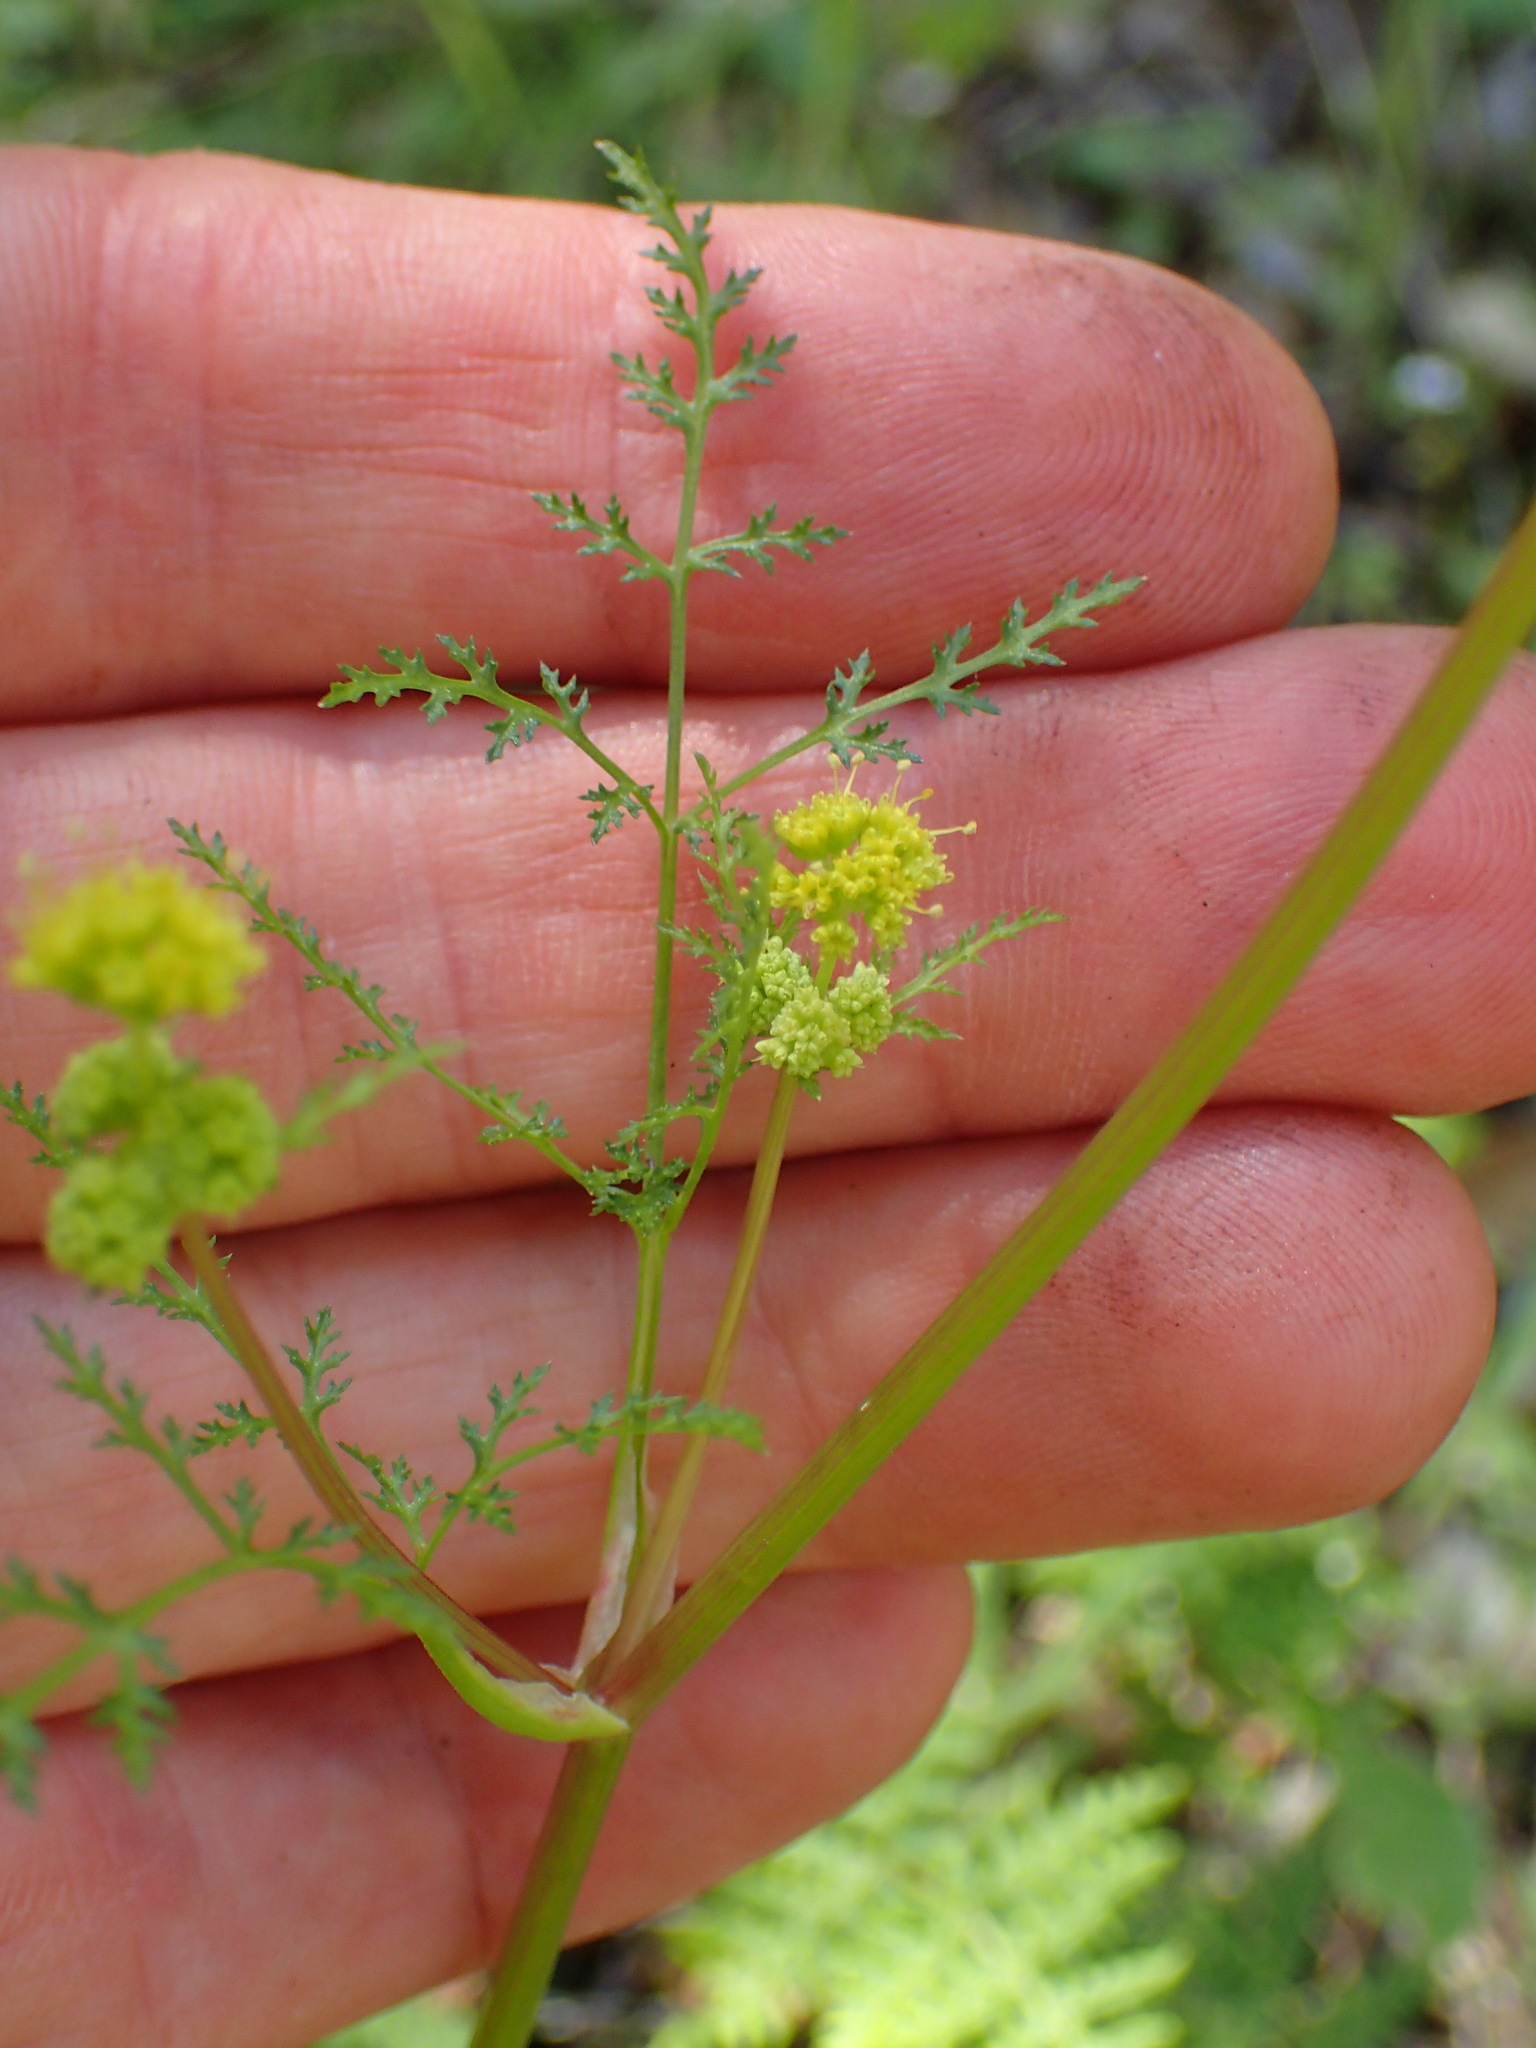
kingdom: Plantae
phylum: Tracheophyta
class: Magnoliopsida
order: Apiales
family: Apiaceae
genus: Sanicula
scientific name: Sanicula tuberosa
